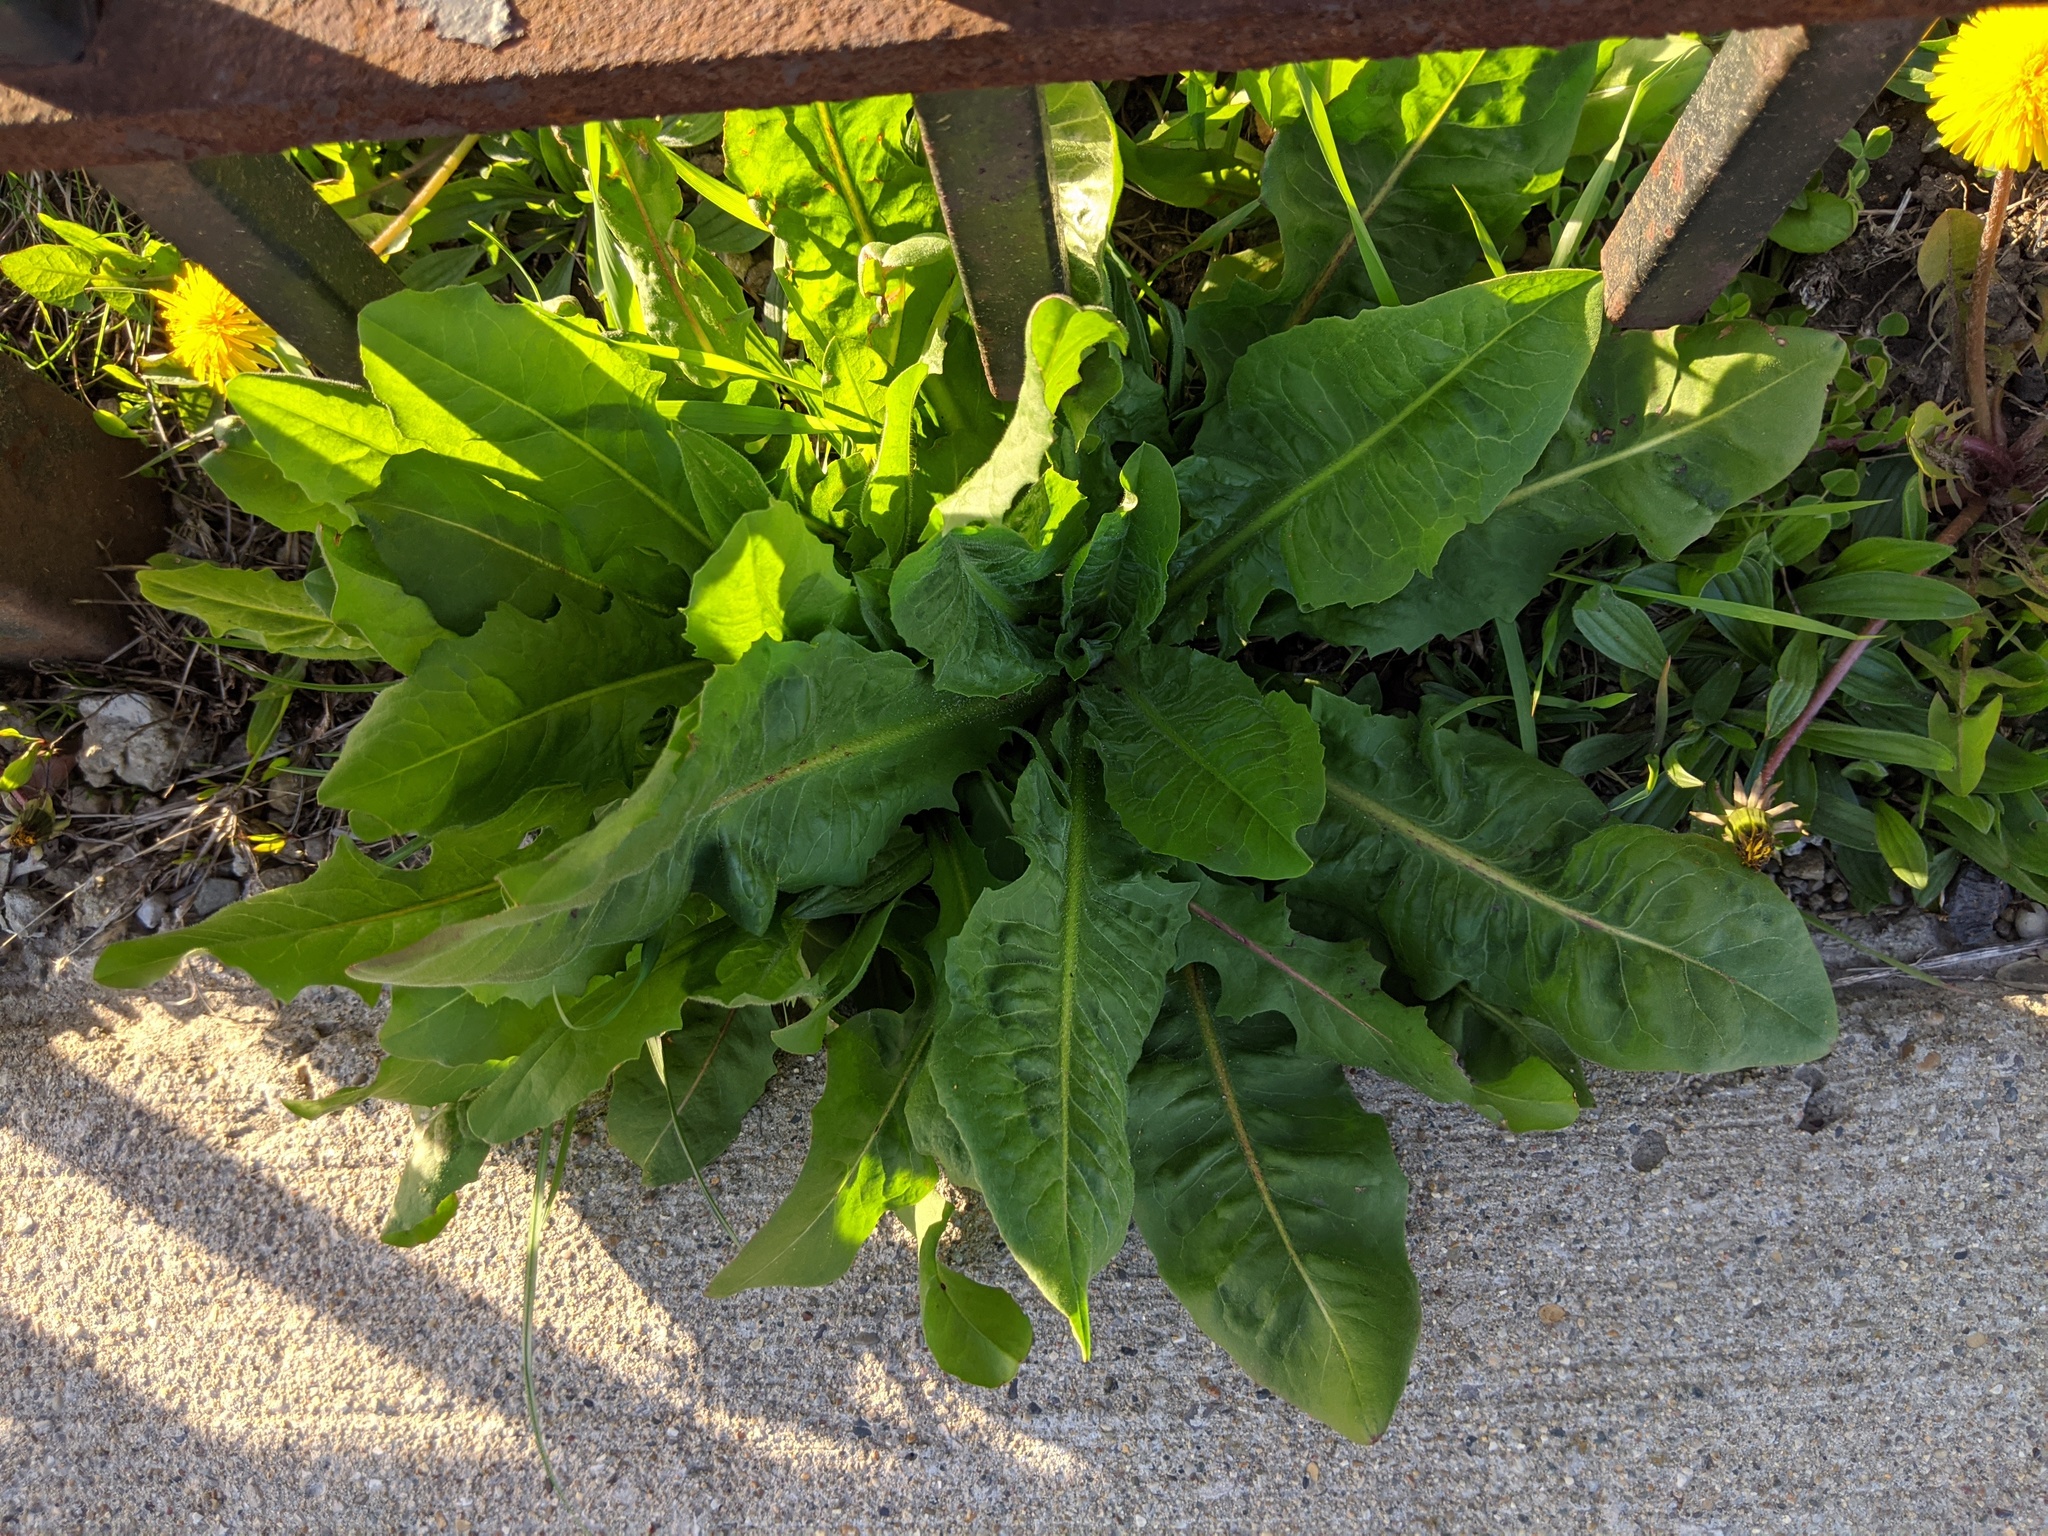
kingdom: Plantae
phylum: Tracheophyta
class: Magnoliopsida
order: Asterales
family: Asteraceae
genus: Cichorium
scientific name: Cichorium intybus
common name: Chicory
